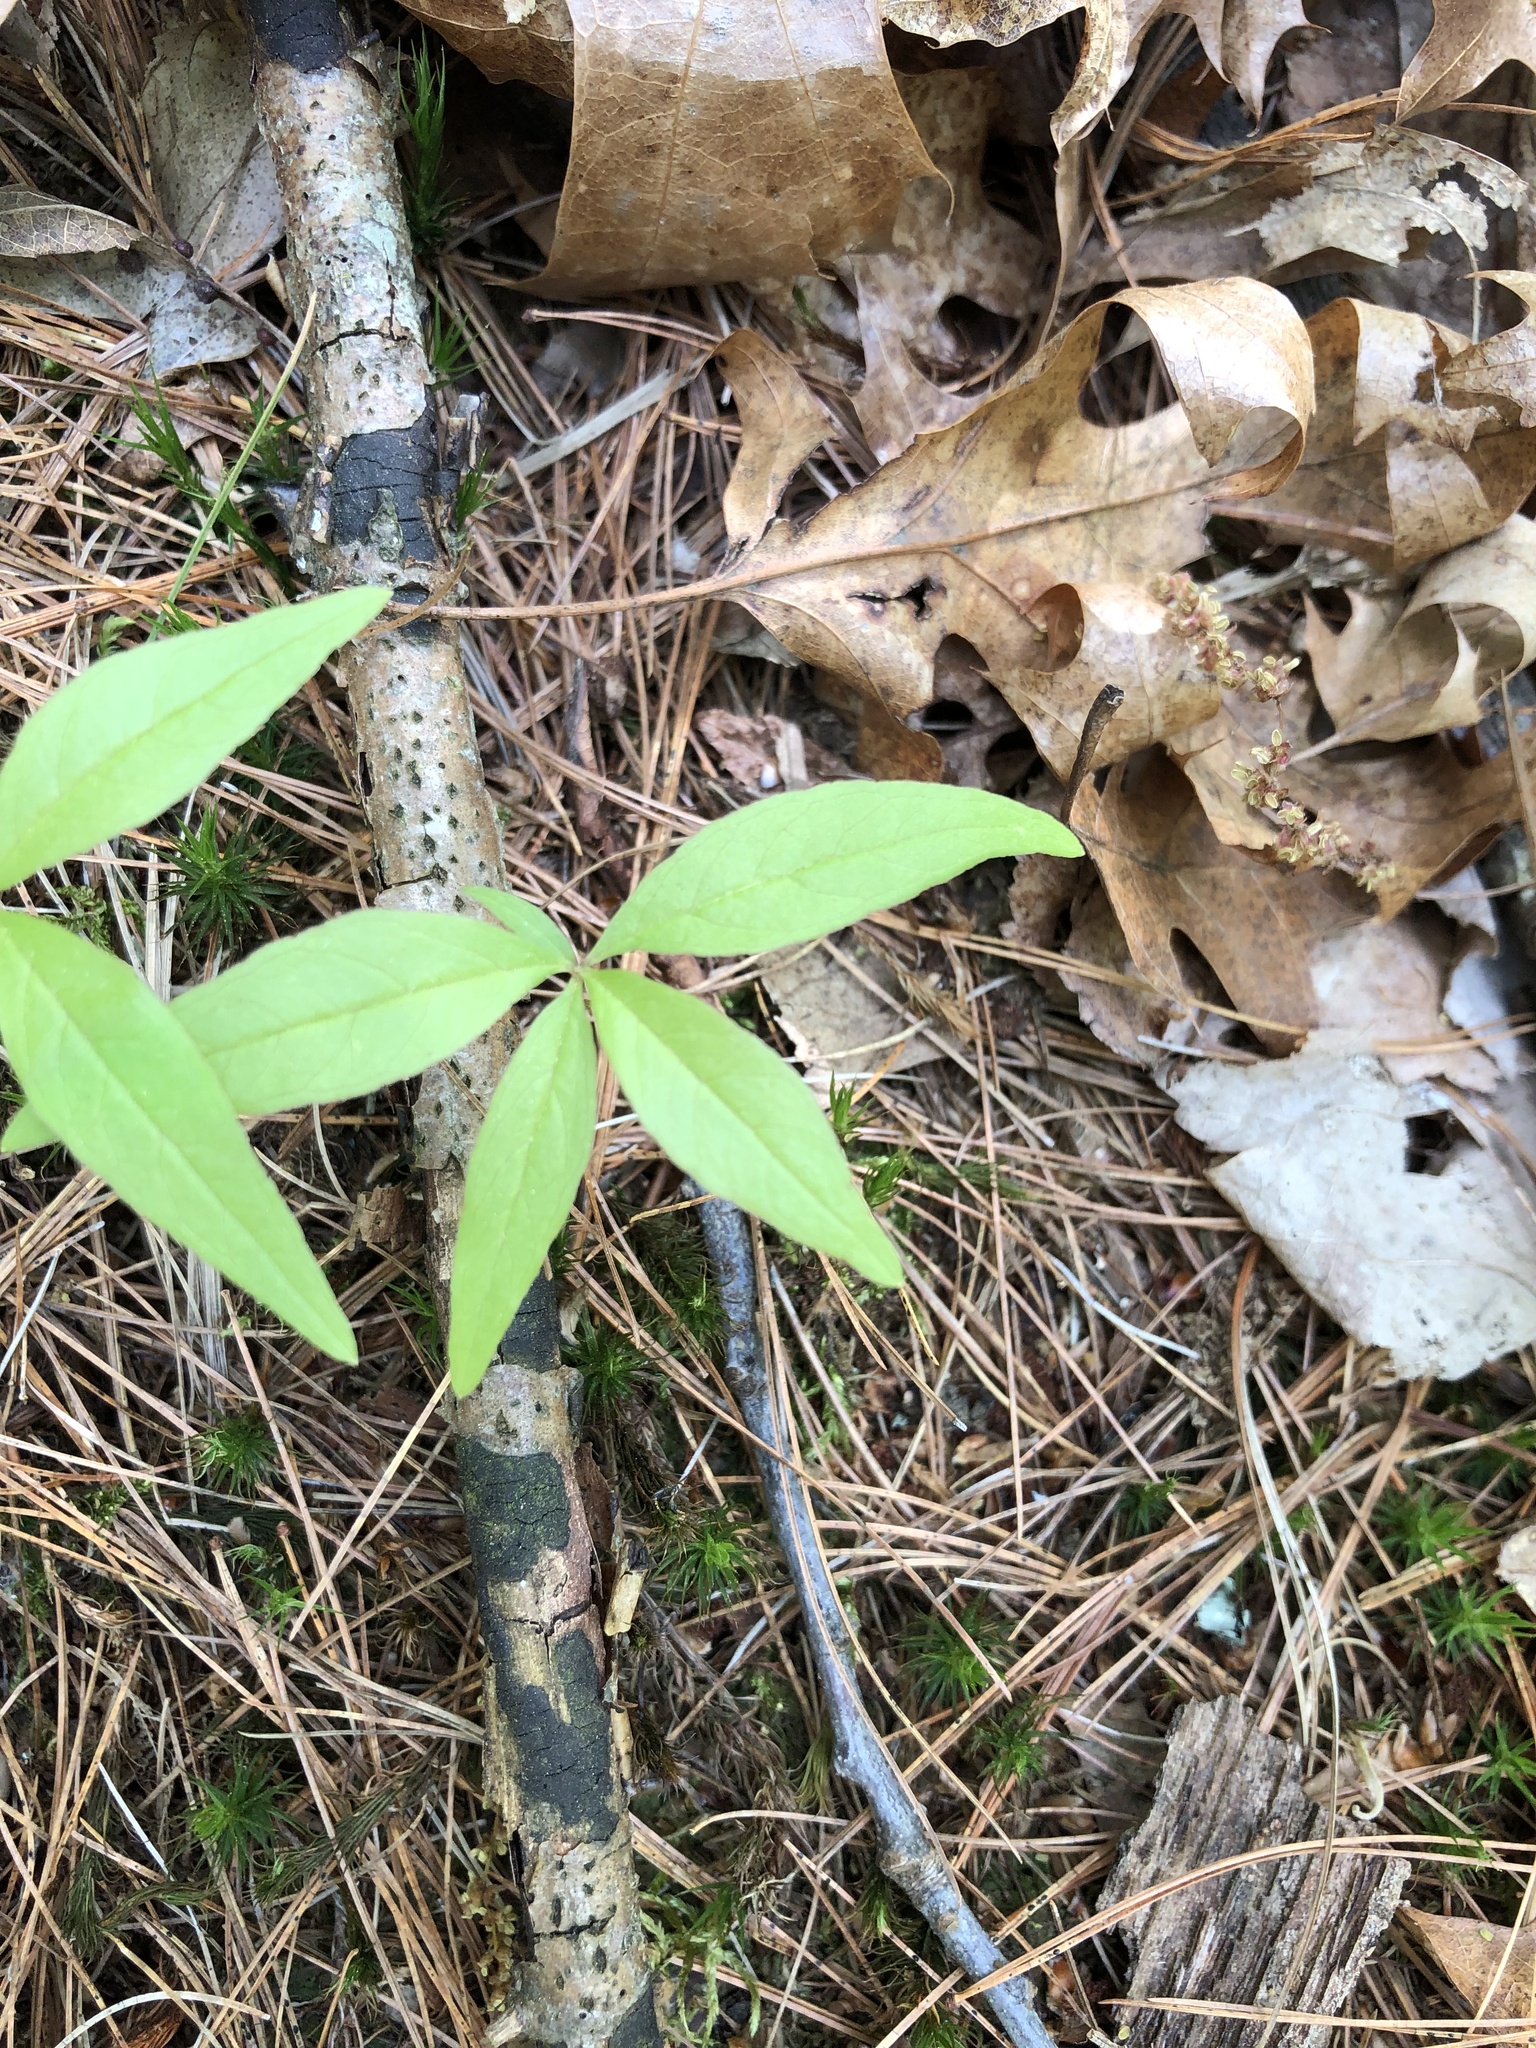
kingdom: Plantae
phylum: Tracheophyta
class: Magnoliopsida
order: Ericales
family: Primulaceae
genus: Lysimachia
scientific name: Lysimachia borealis
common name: American starflower
